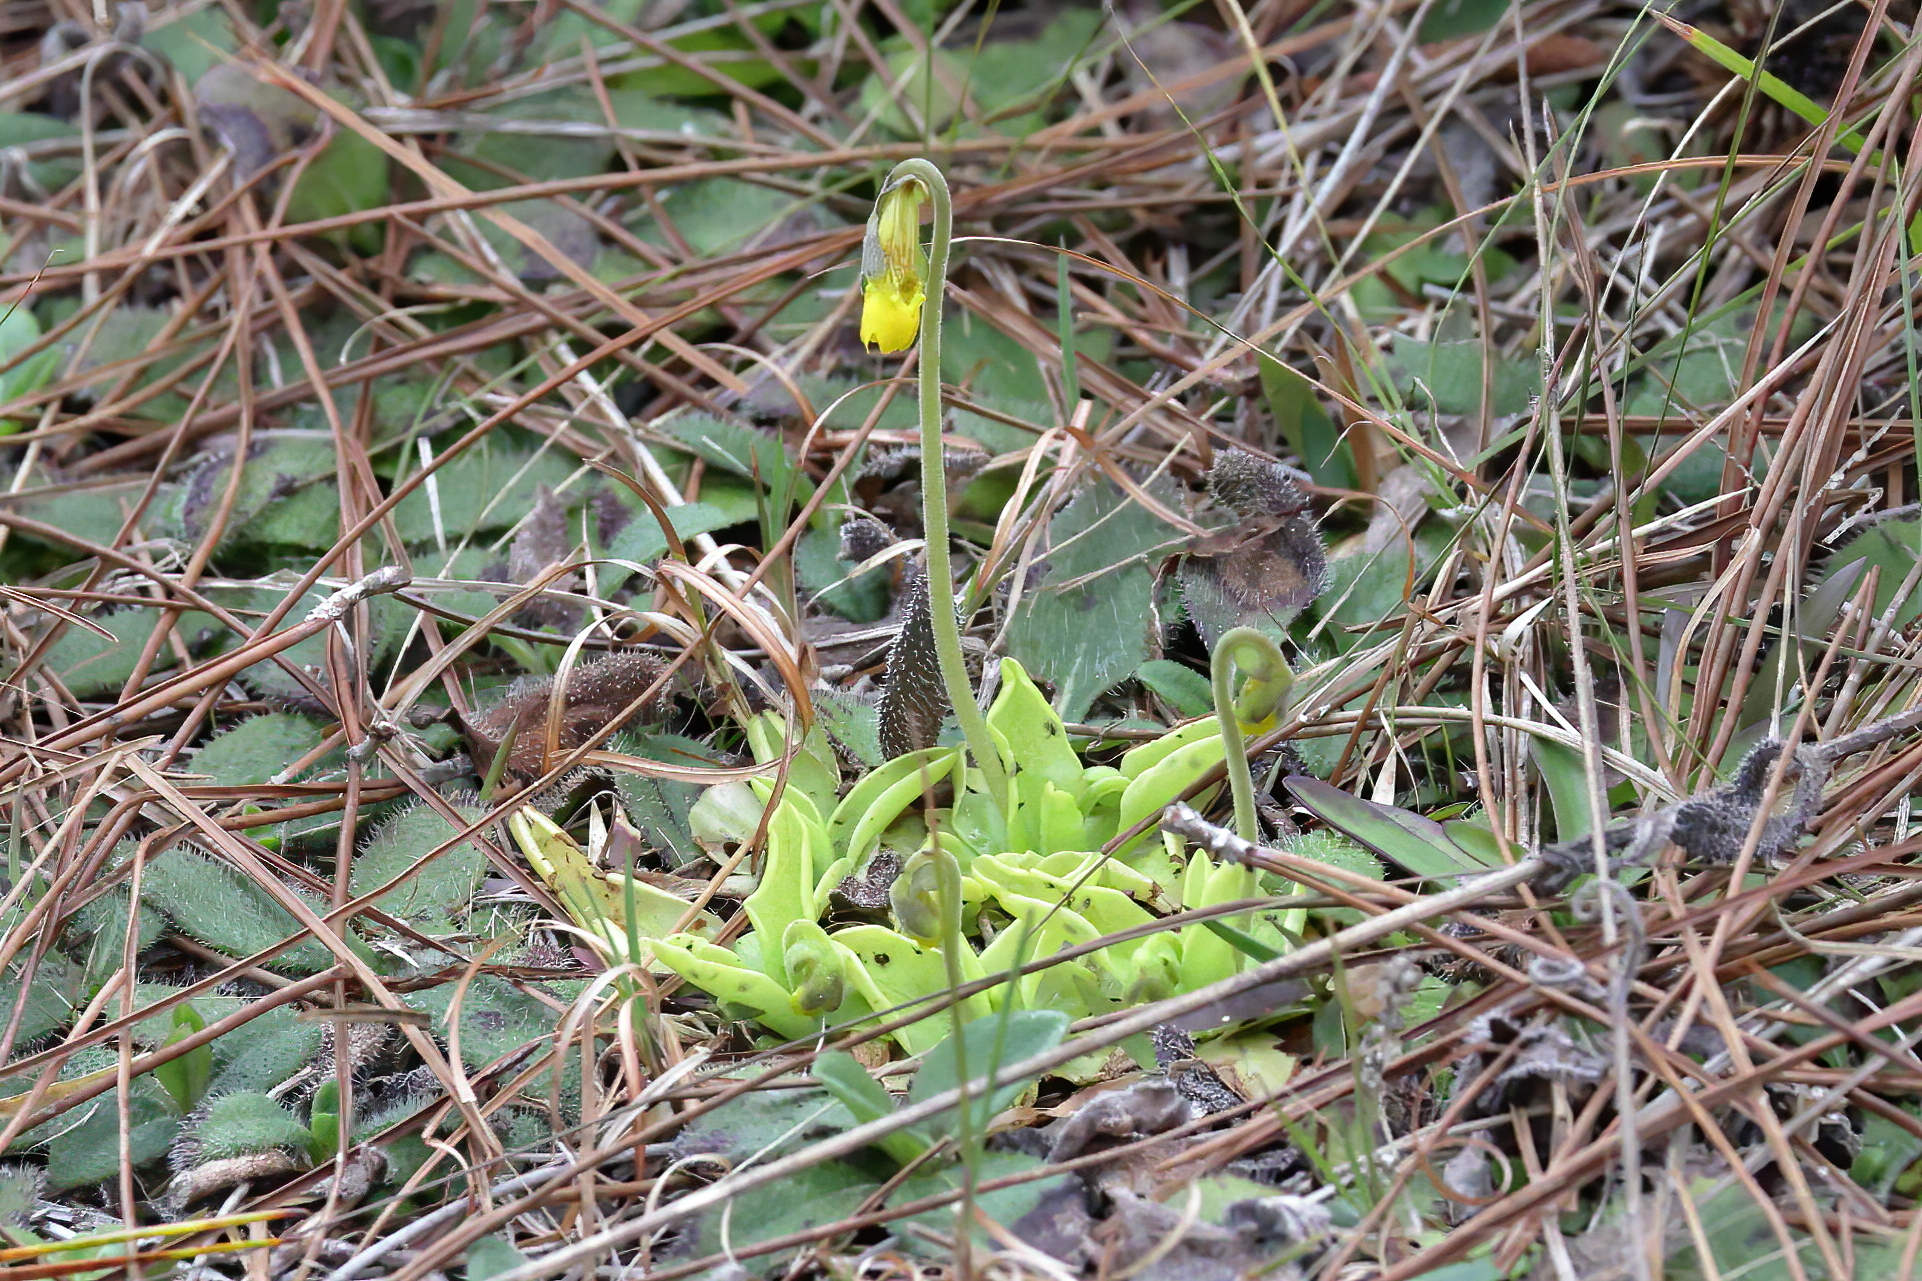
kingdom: Plantae
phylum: Tracheophyta
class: Magnoliopsida
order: Lamiales
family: Lentibulariaceae
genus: Pinguicula
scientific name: Pinguicula lutea
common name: Yellow butterwort
